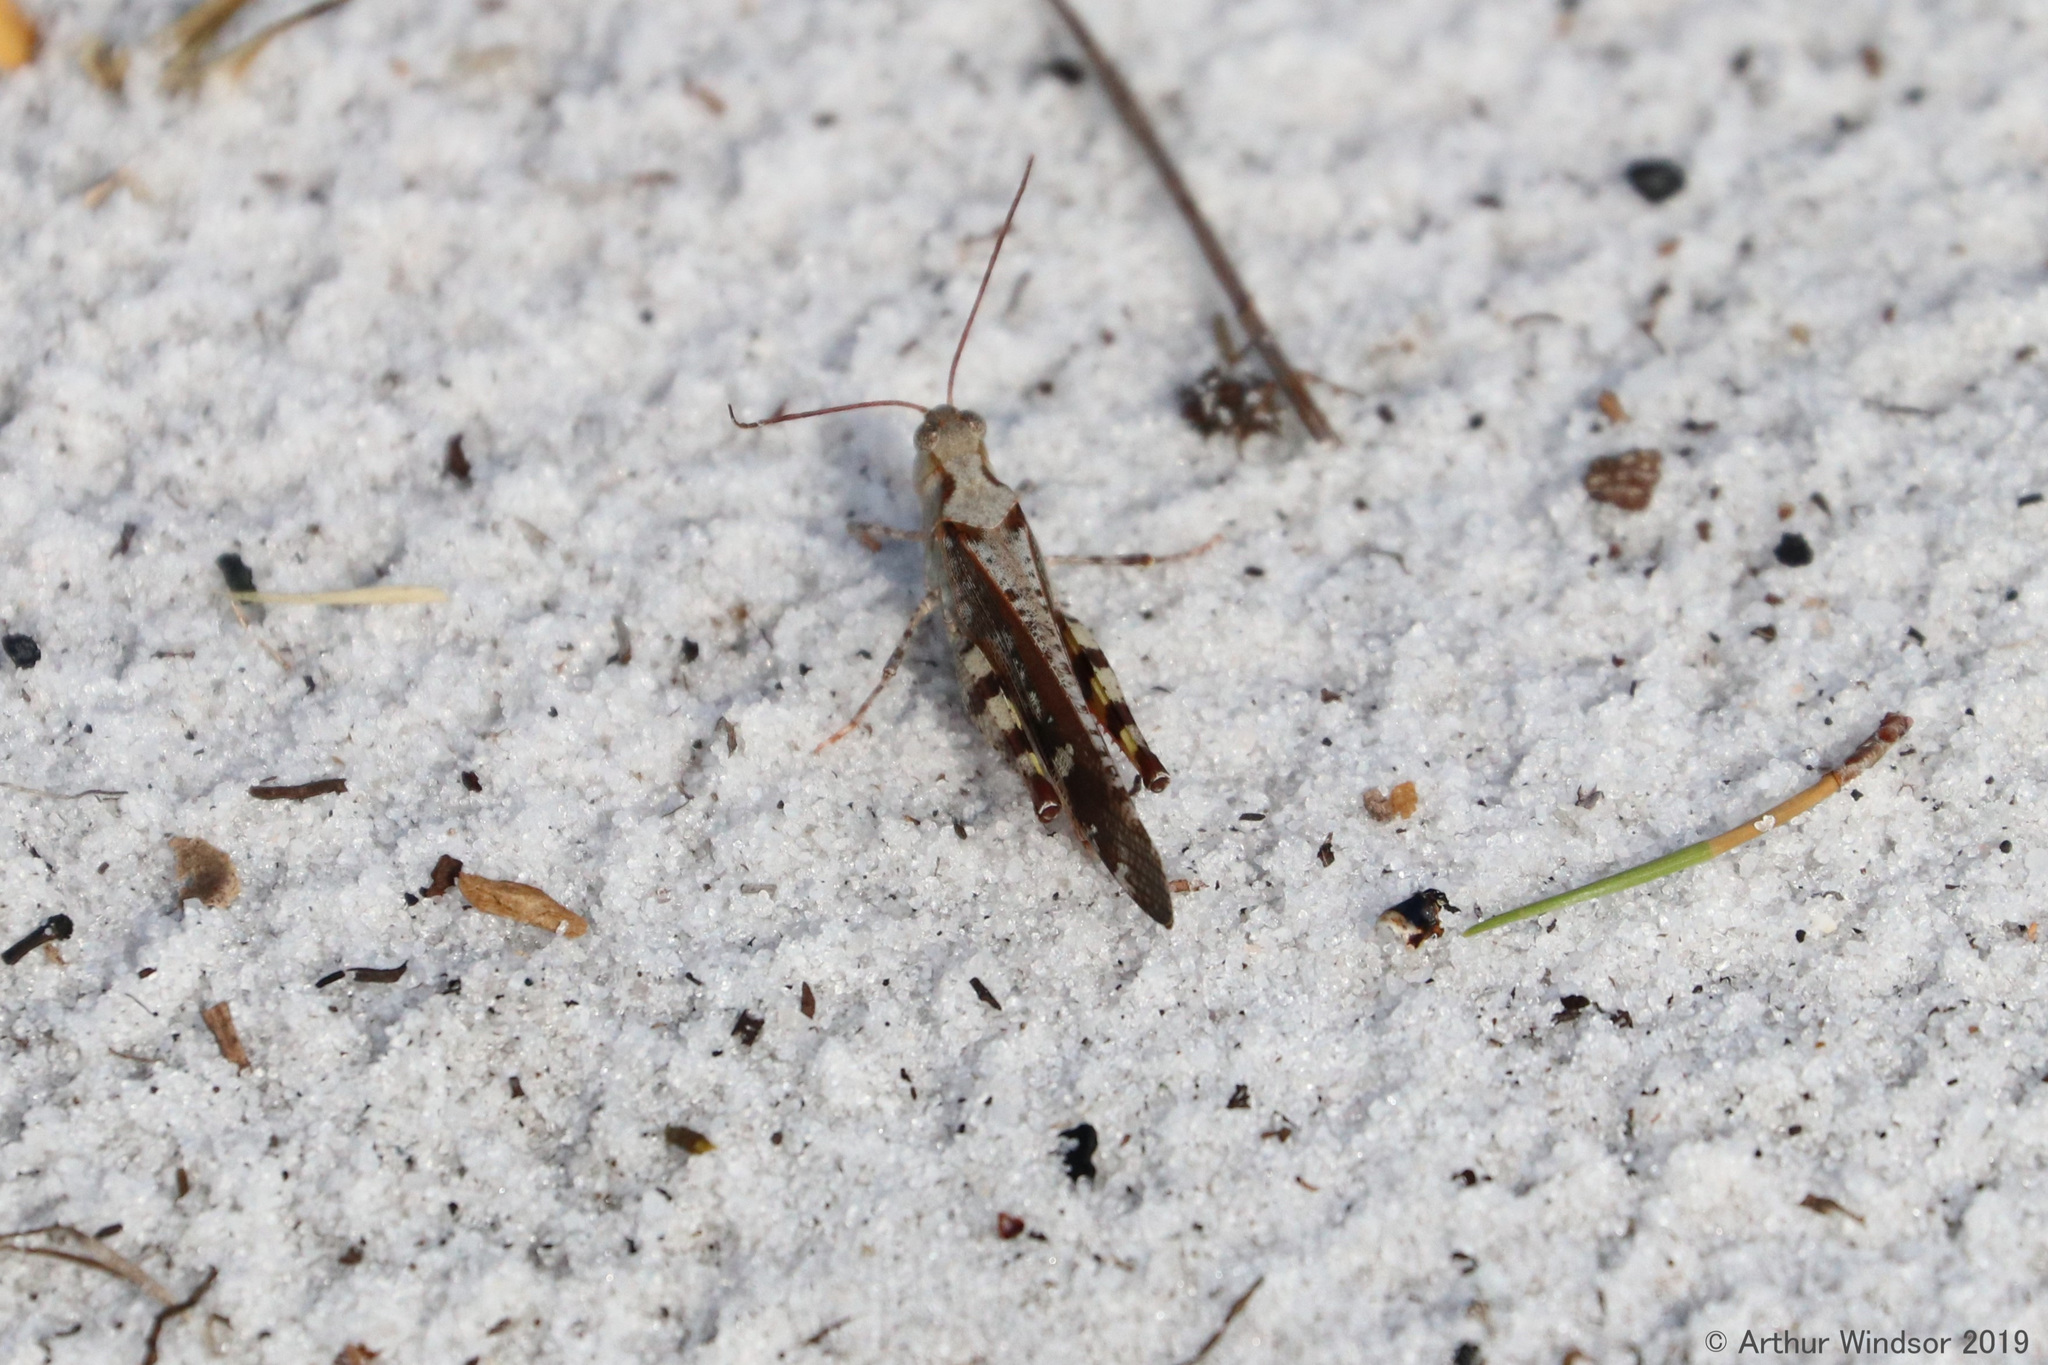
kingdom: Animalia
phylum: Arthropoda
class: Insecta
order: Orthoptera
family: Acrididae
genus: Spharagemon
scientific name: Spharagemon marmoratum
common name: Marbled grasshopper
